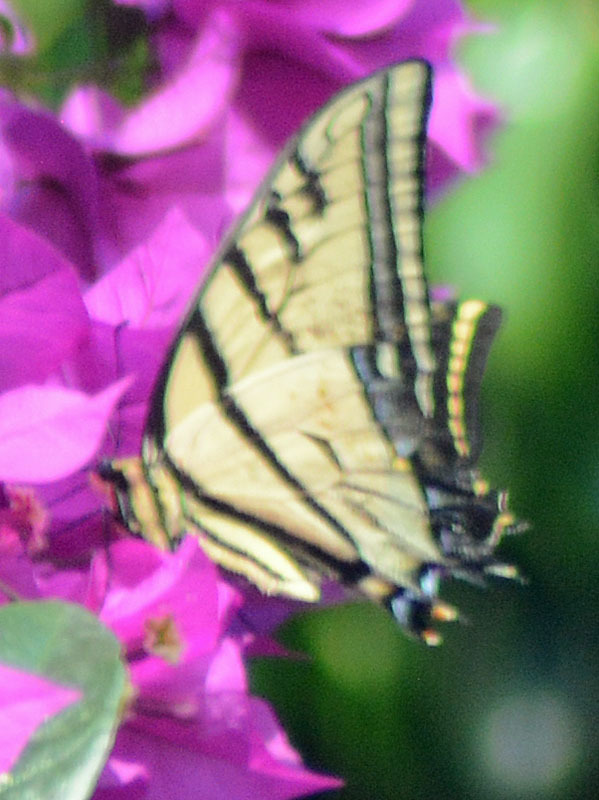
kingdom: Animalia
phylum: Arthropoda
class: Insecta
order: Lepidoptera
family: Papilionidae
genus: Papilio
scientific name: Papilio multicaudata
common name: Two-tailed tiger swallowtail
